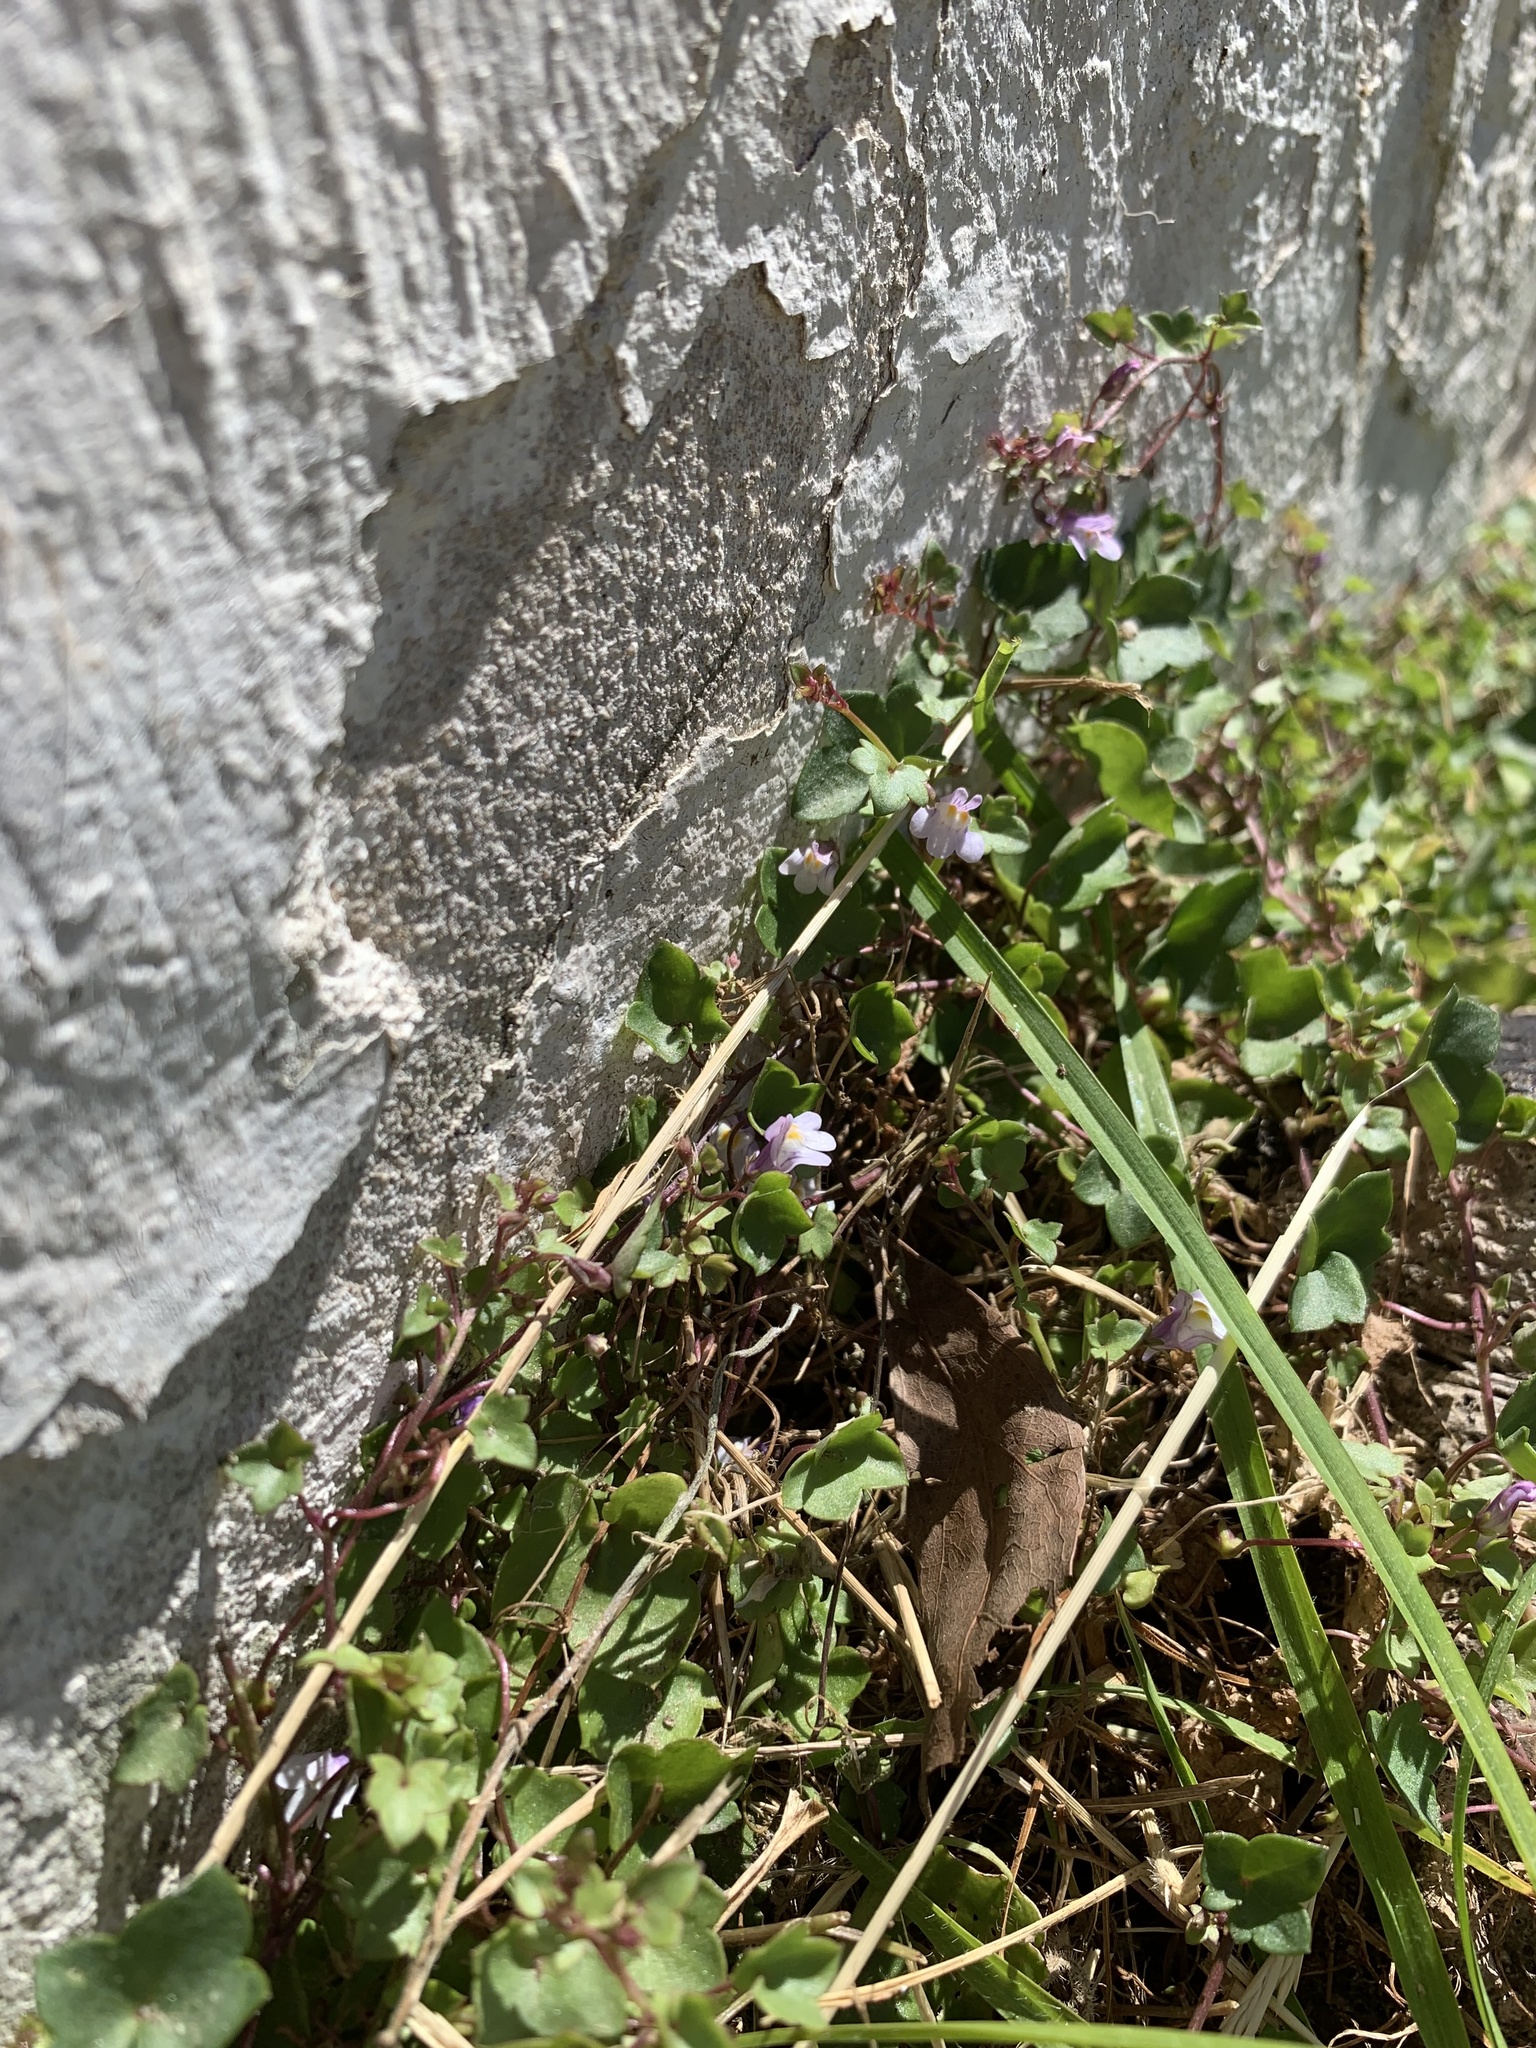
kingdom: Plantae
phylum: Tracheophyta
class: Magnoliopsida
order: Lamiales
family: Plantaginaceae
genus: Cymbalaria
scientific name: Cymbalaria muralis
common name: Ivy-leaved toadflax
